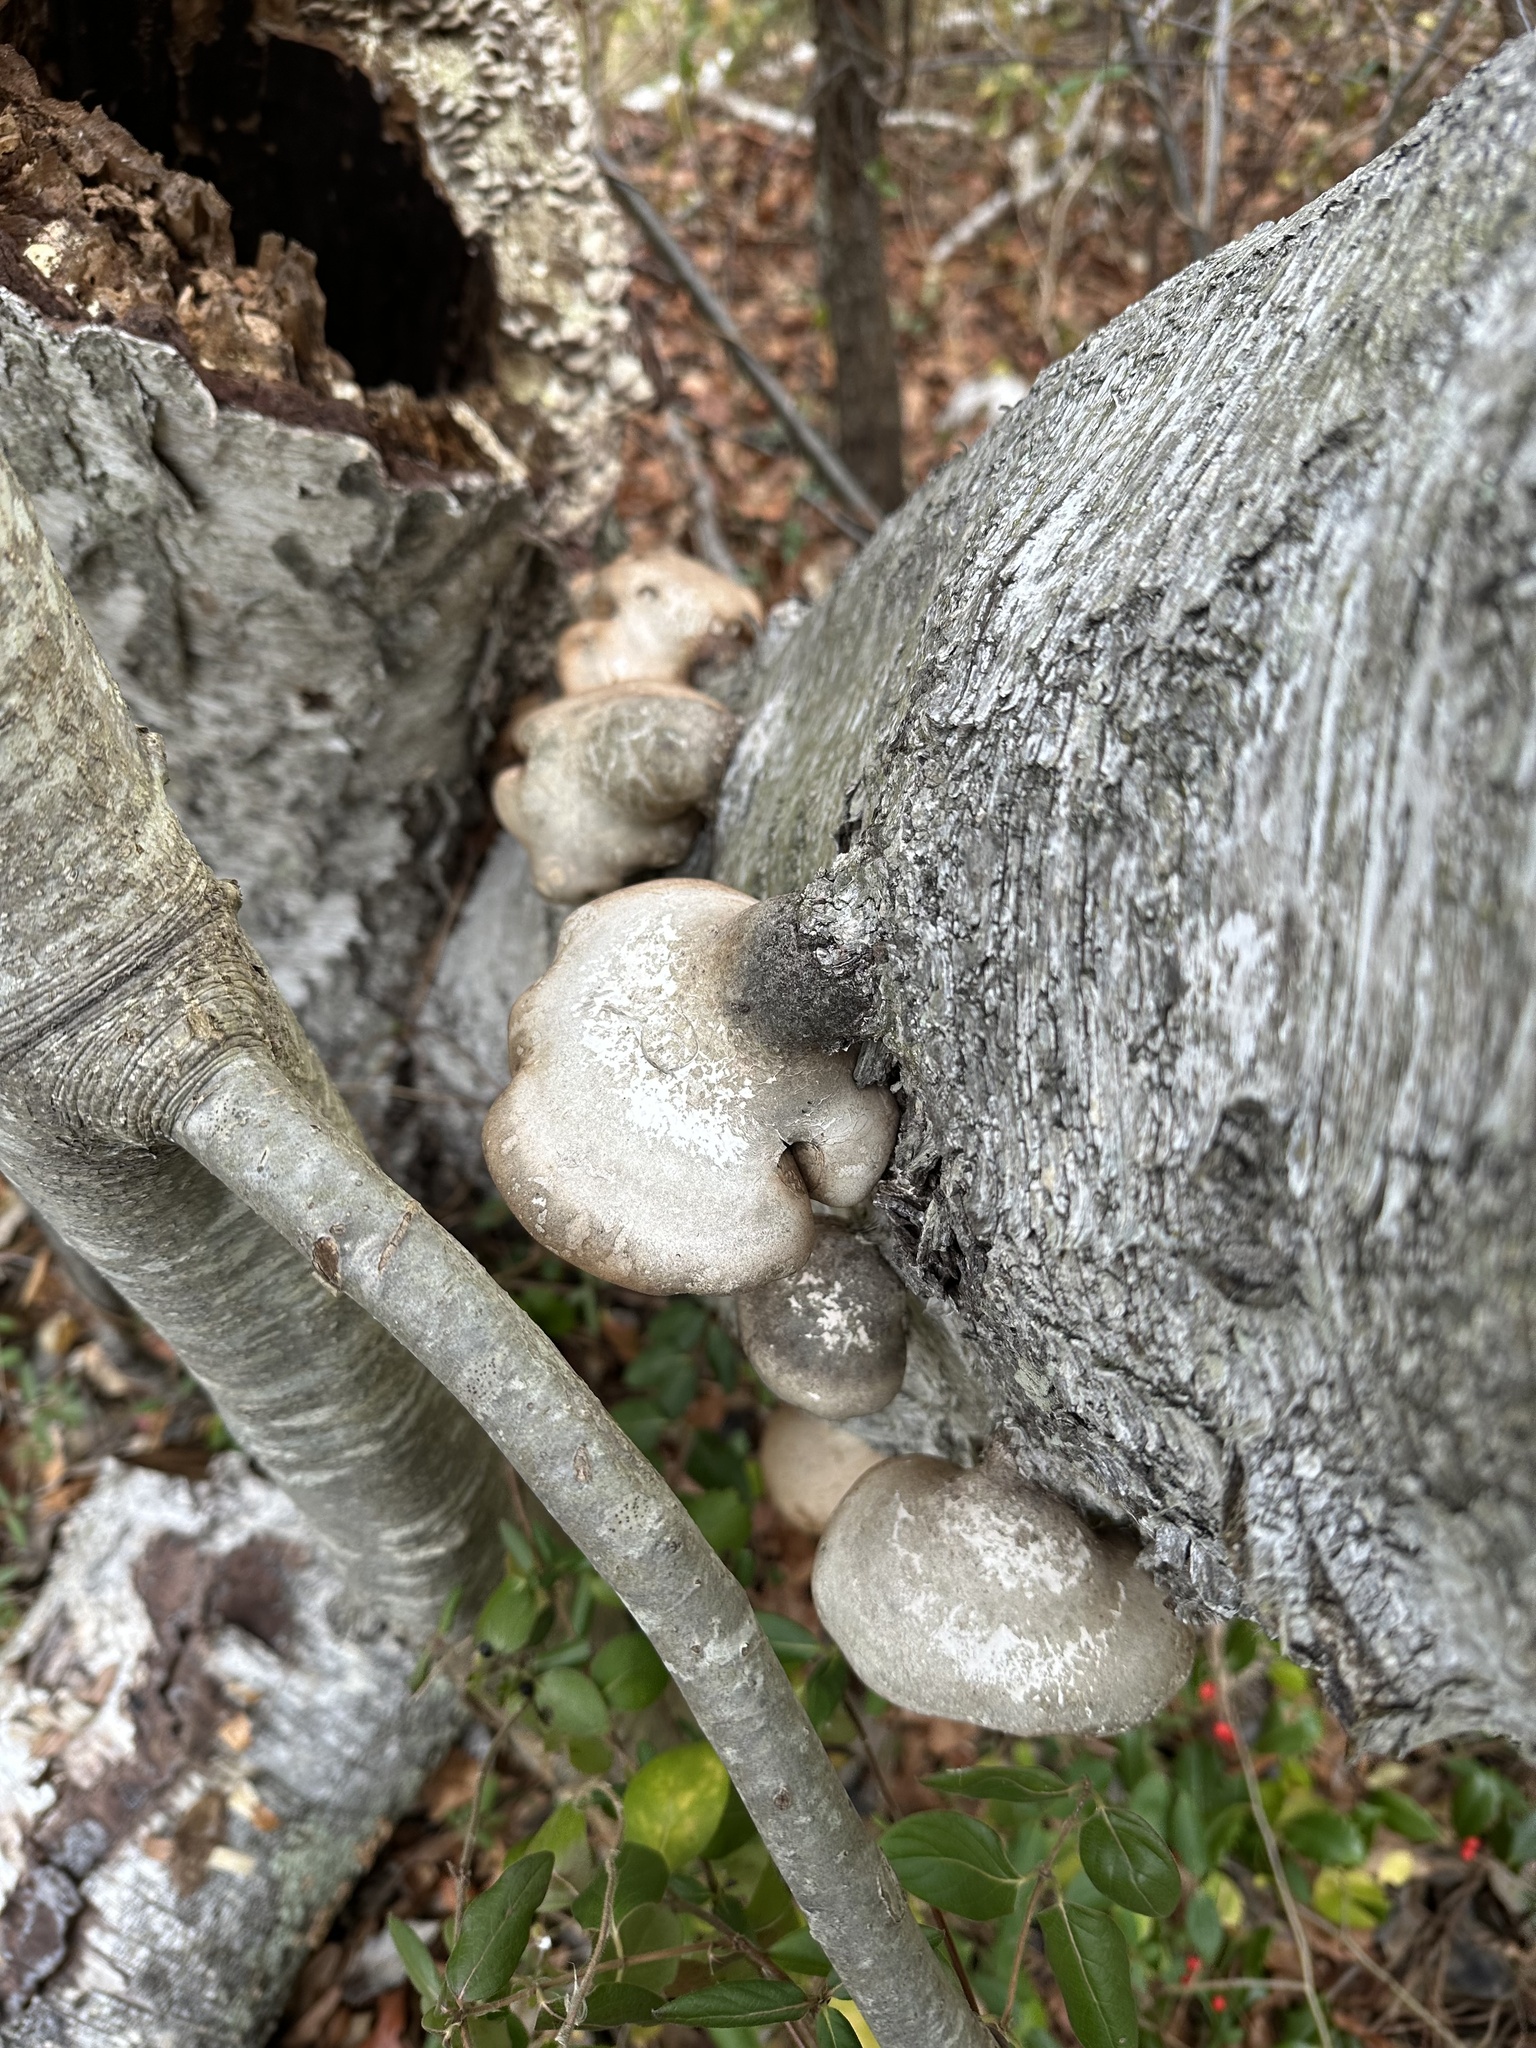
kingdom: Fungi
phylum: Basidiomycota
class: Agaricomycetes
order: Polyporales
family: Fomitopsidaceae
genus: Fomitopsis
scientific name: Fomitopsis betulina
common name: Birch polypore
